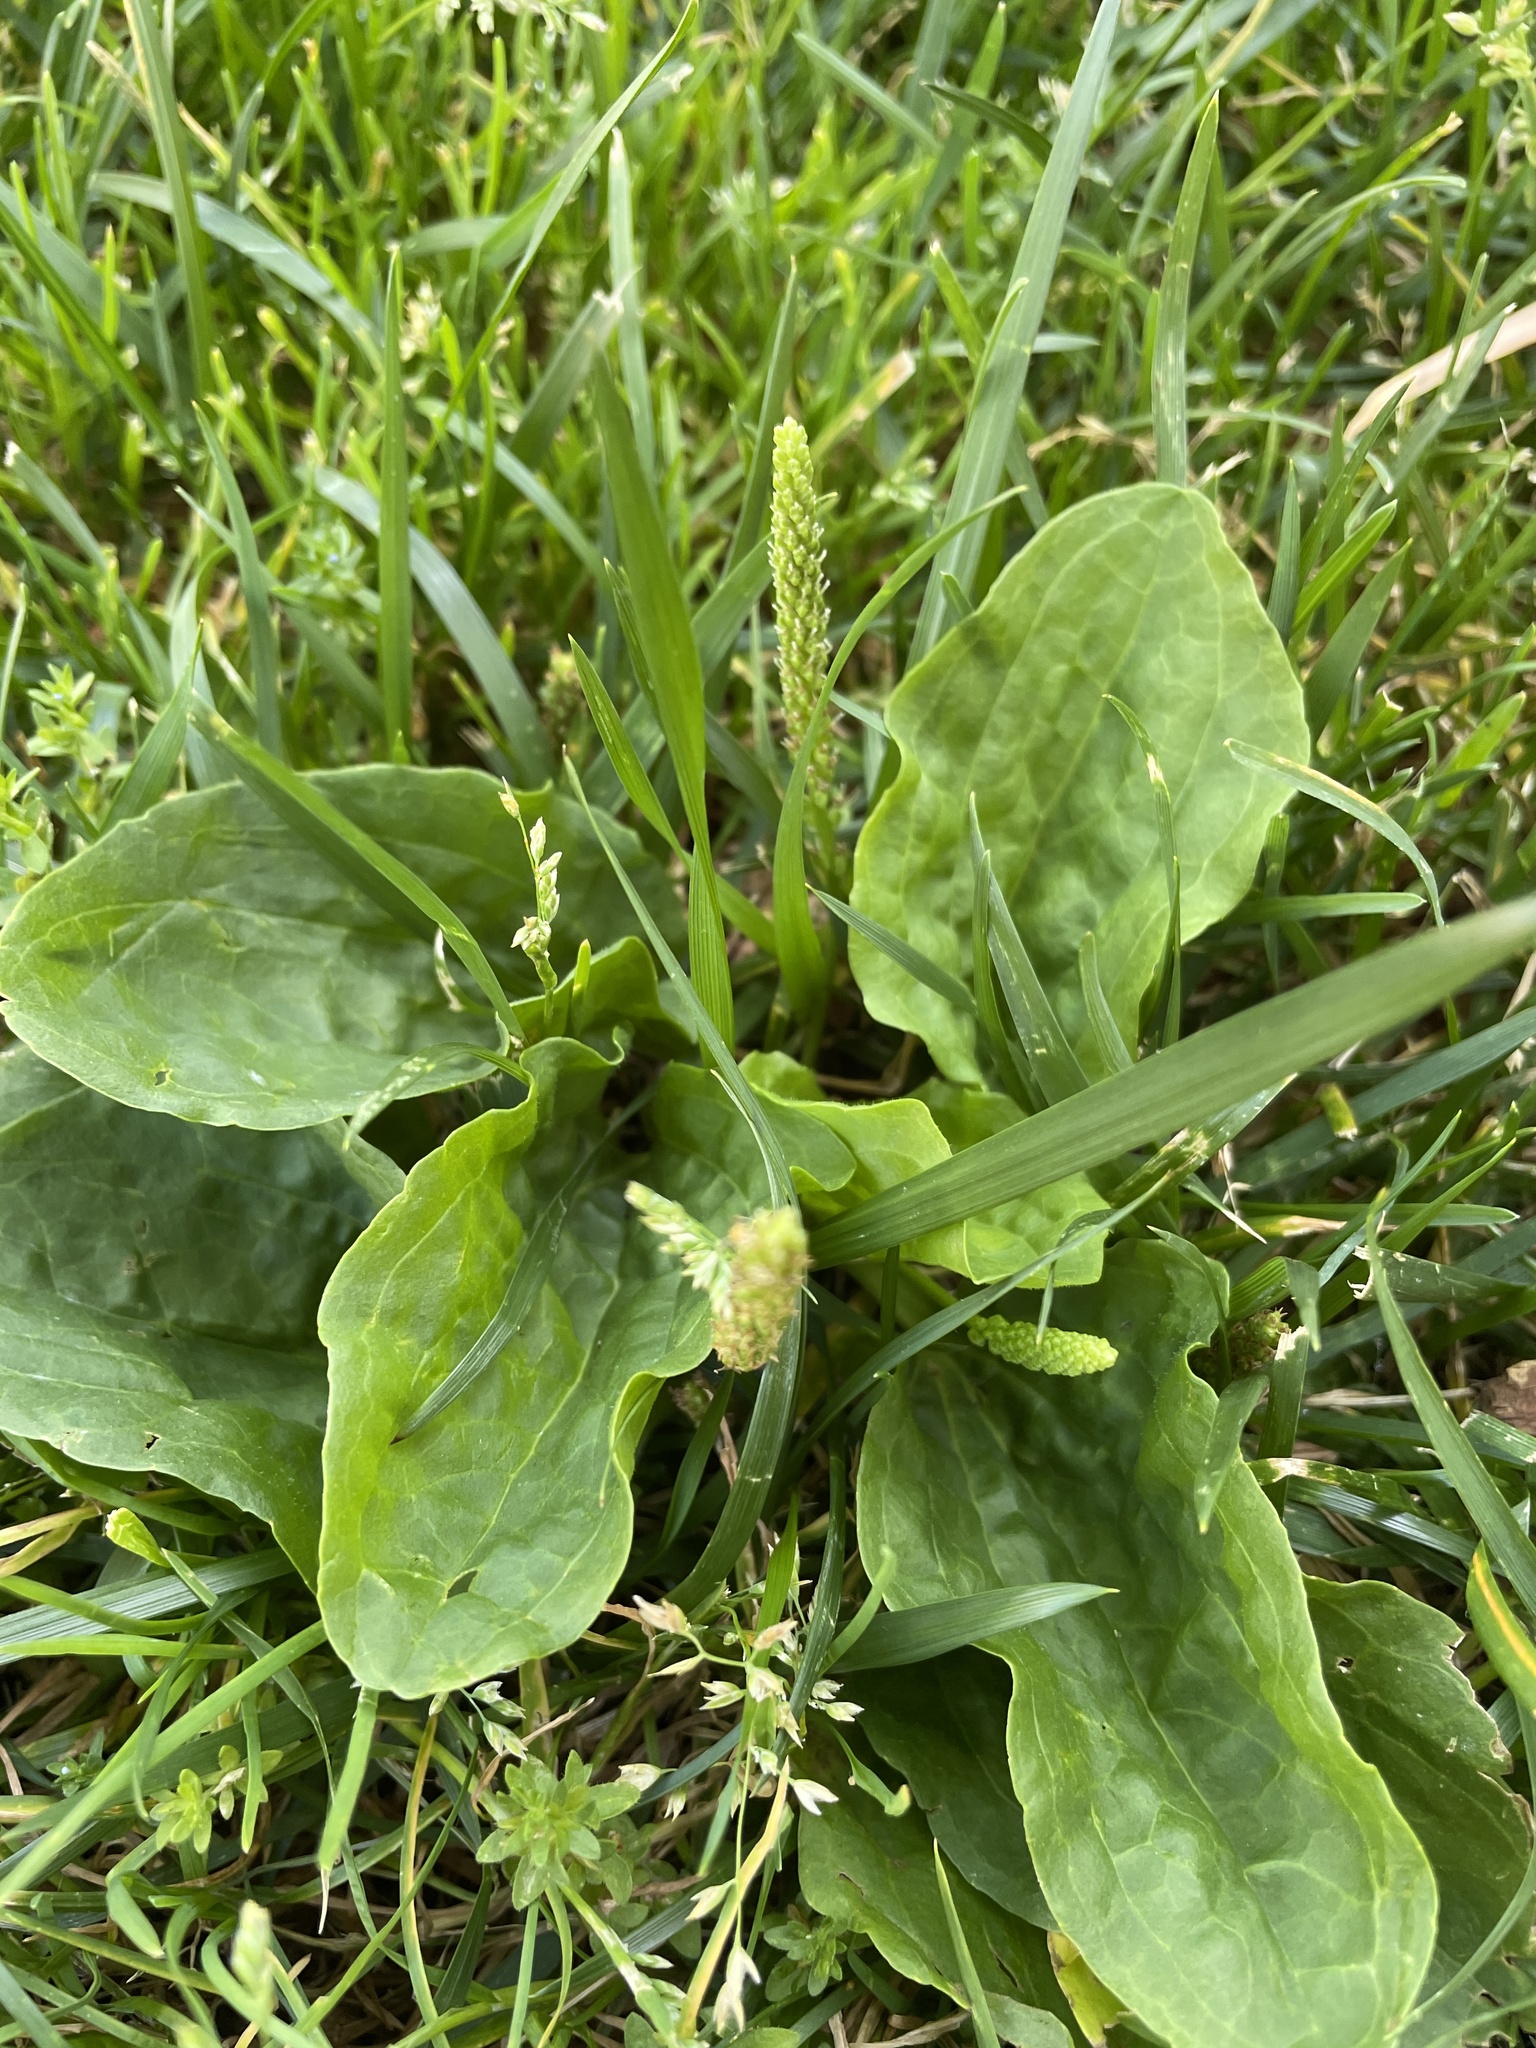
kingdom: Plantae
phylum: Tracheophyta
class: Magnoliopsida
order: Lamiales
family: Plantaginaceae
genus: Plantago
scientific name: Plantago major
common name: Common plantain
